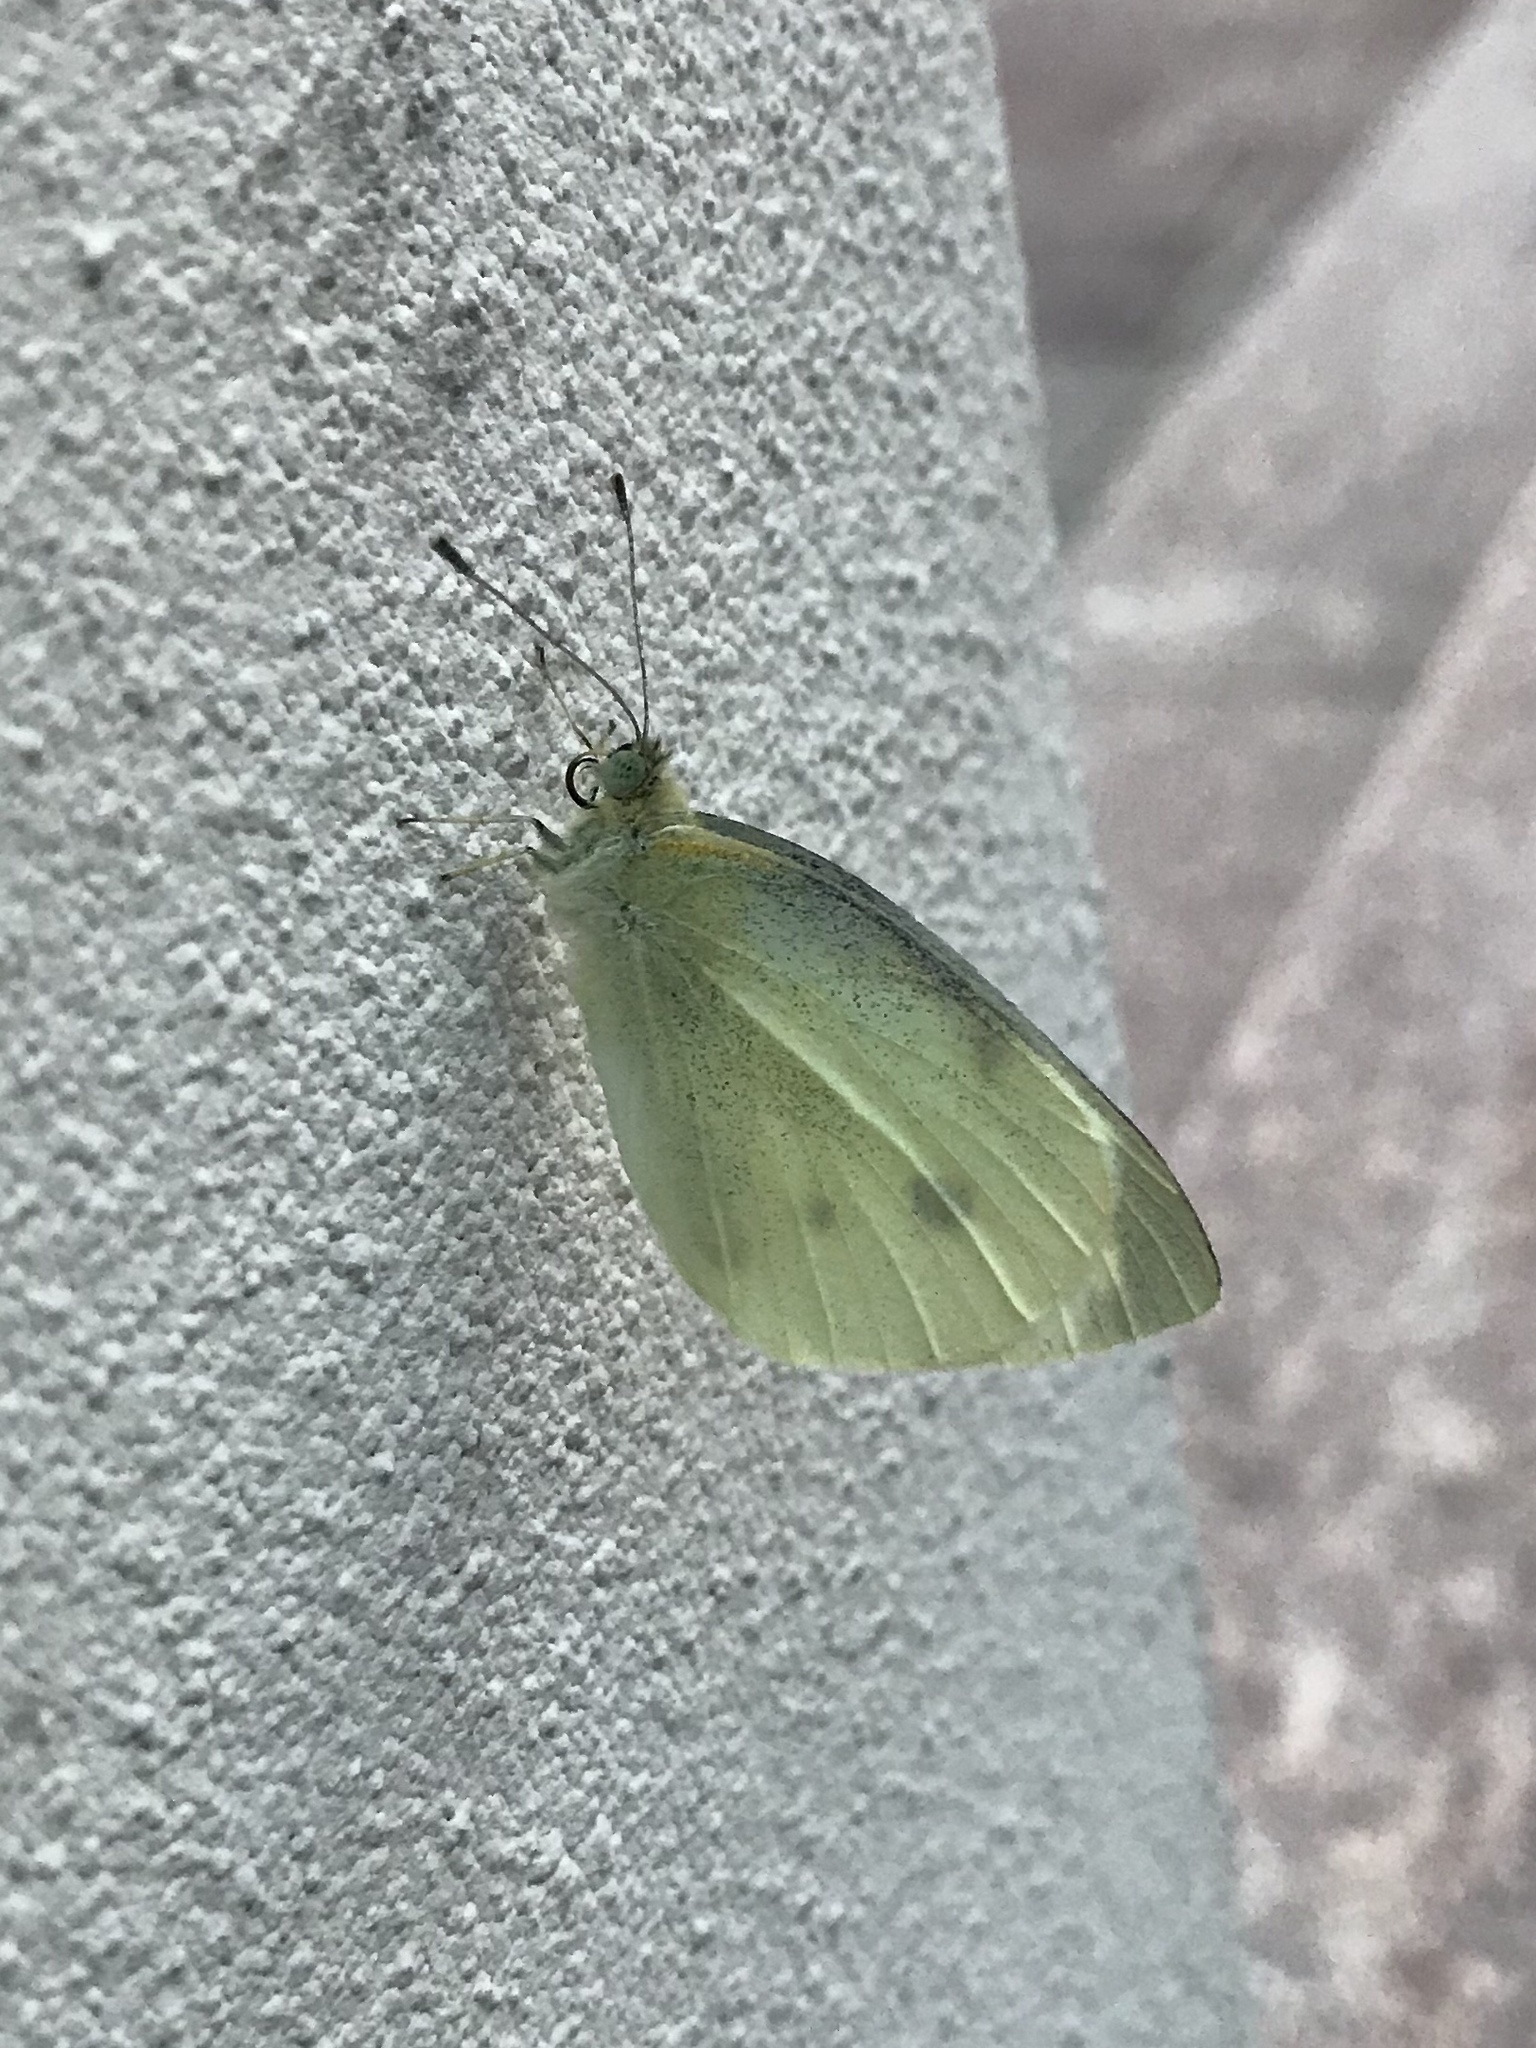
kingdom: Animalia
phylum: Arthropoda
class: Insecta
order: Lepidoptera
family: Pieridae
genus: Pieris
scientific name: Pieris rapae
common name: Small white
